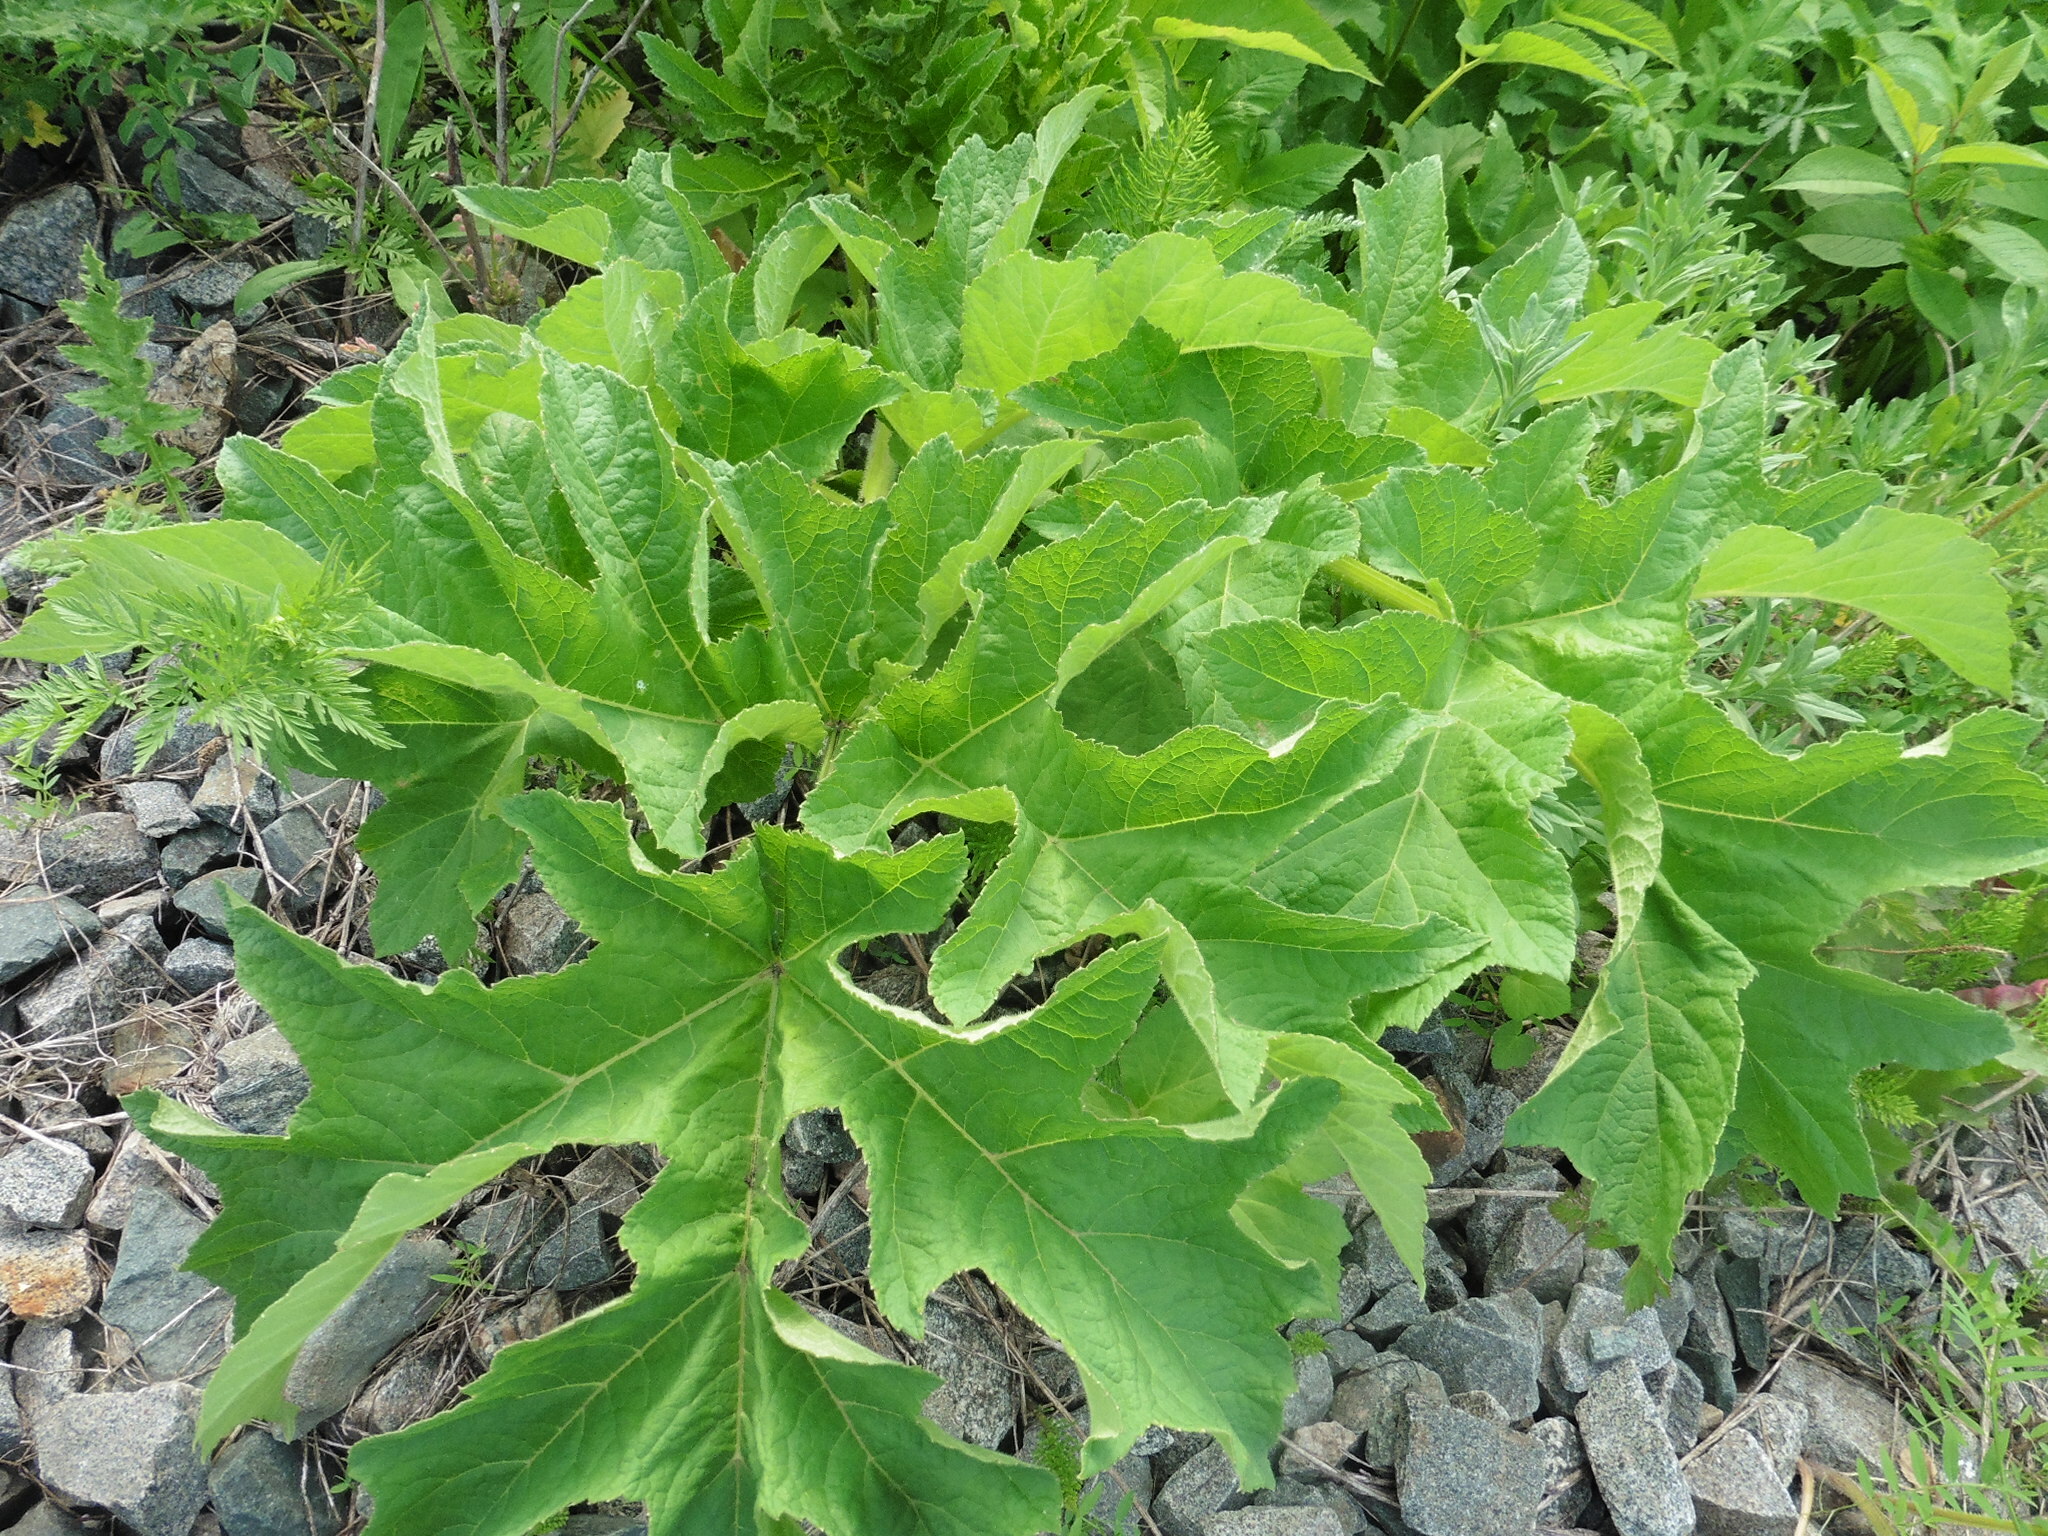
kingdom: Plantae
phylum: Tracheophyta
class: Magnoliopsida
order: Apiales
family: Apiaceae
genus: Heracleum
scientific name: Heracleum sphondylium
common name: Hogweed
